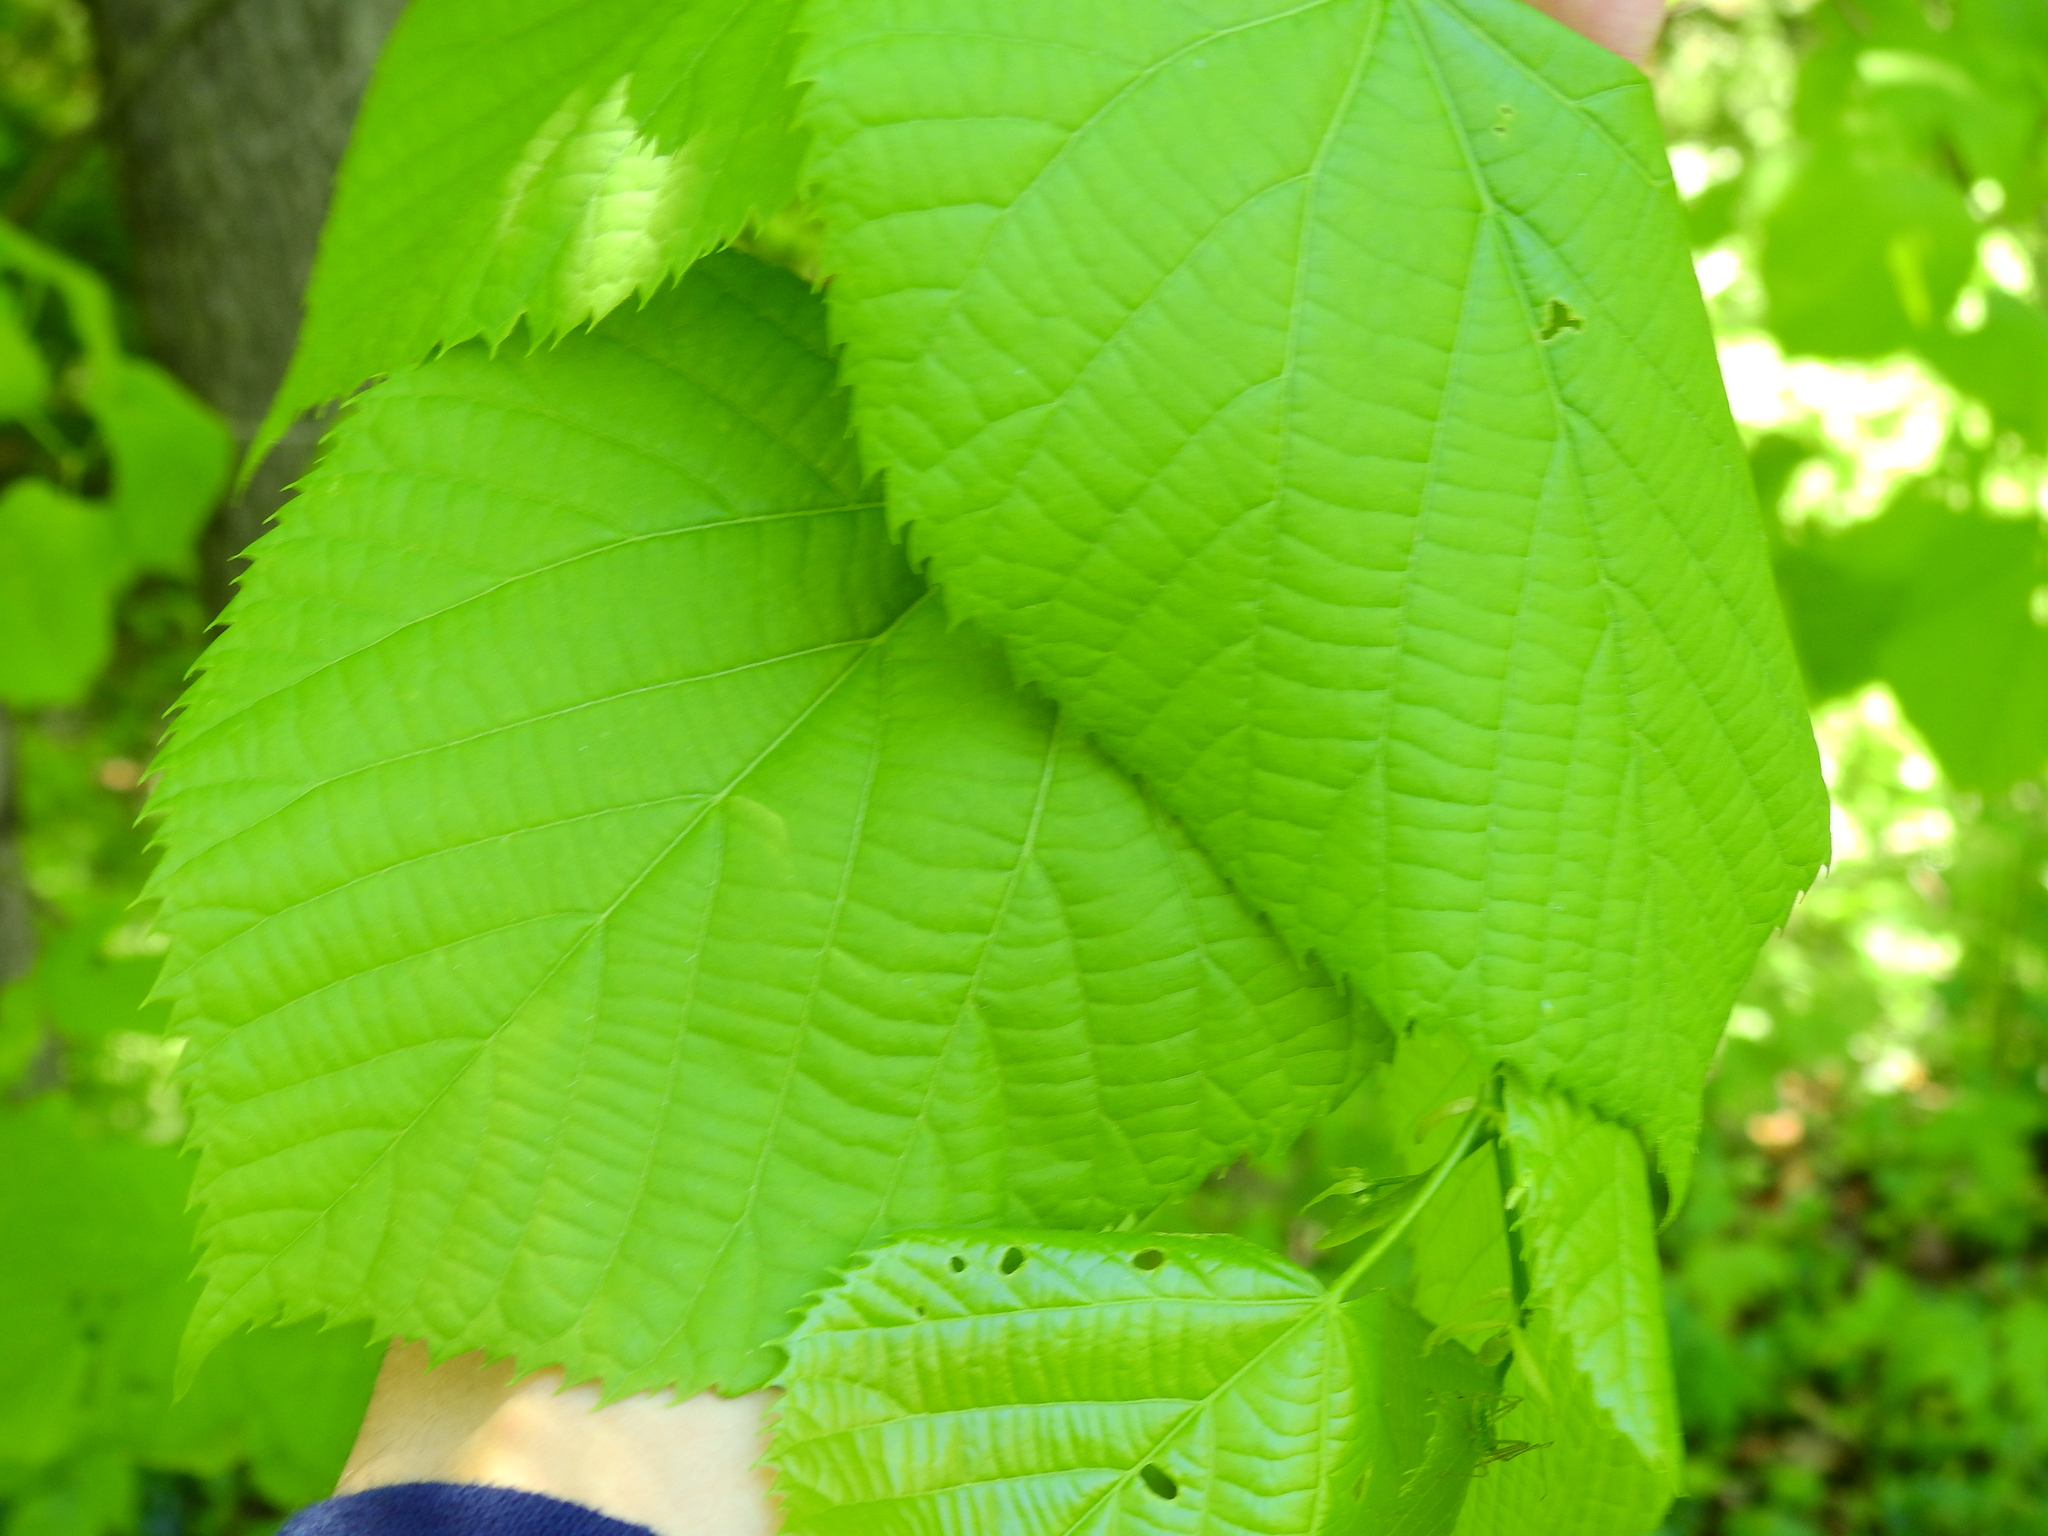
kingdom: Plantae
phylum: Tracheophyta
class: Magnoliopsida
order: Malvales
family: Malvaceae
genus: Tilia
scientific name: Tilia americana
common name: Basswood
